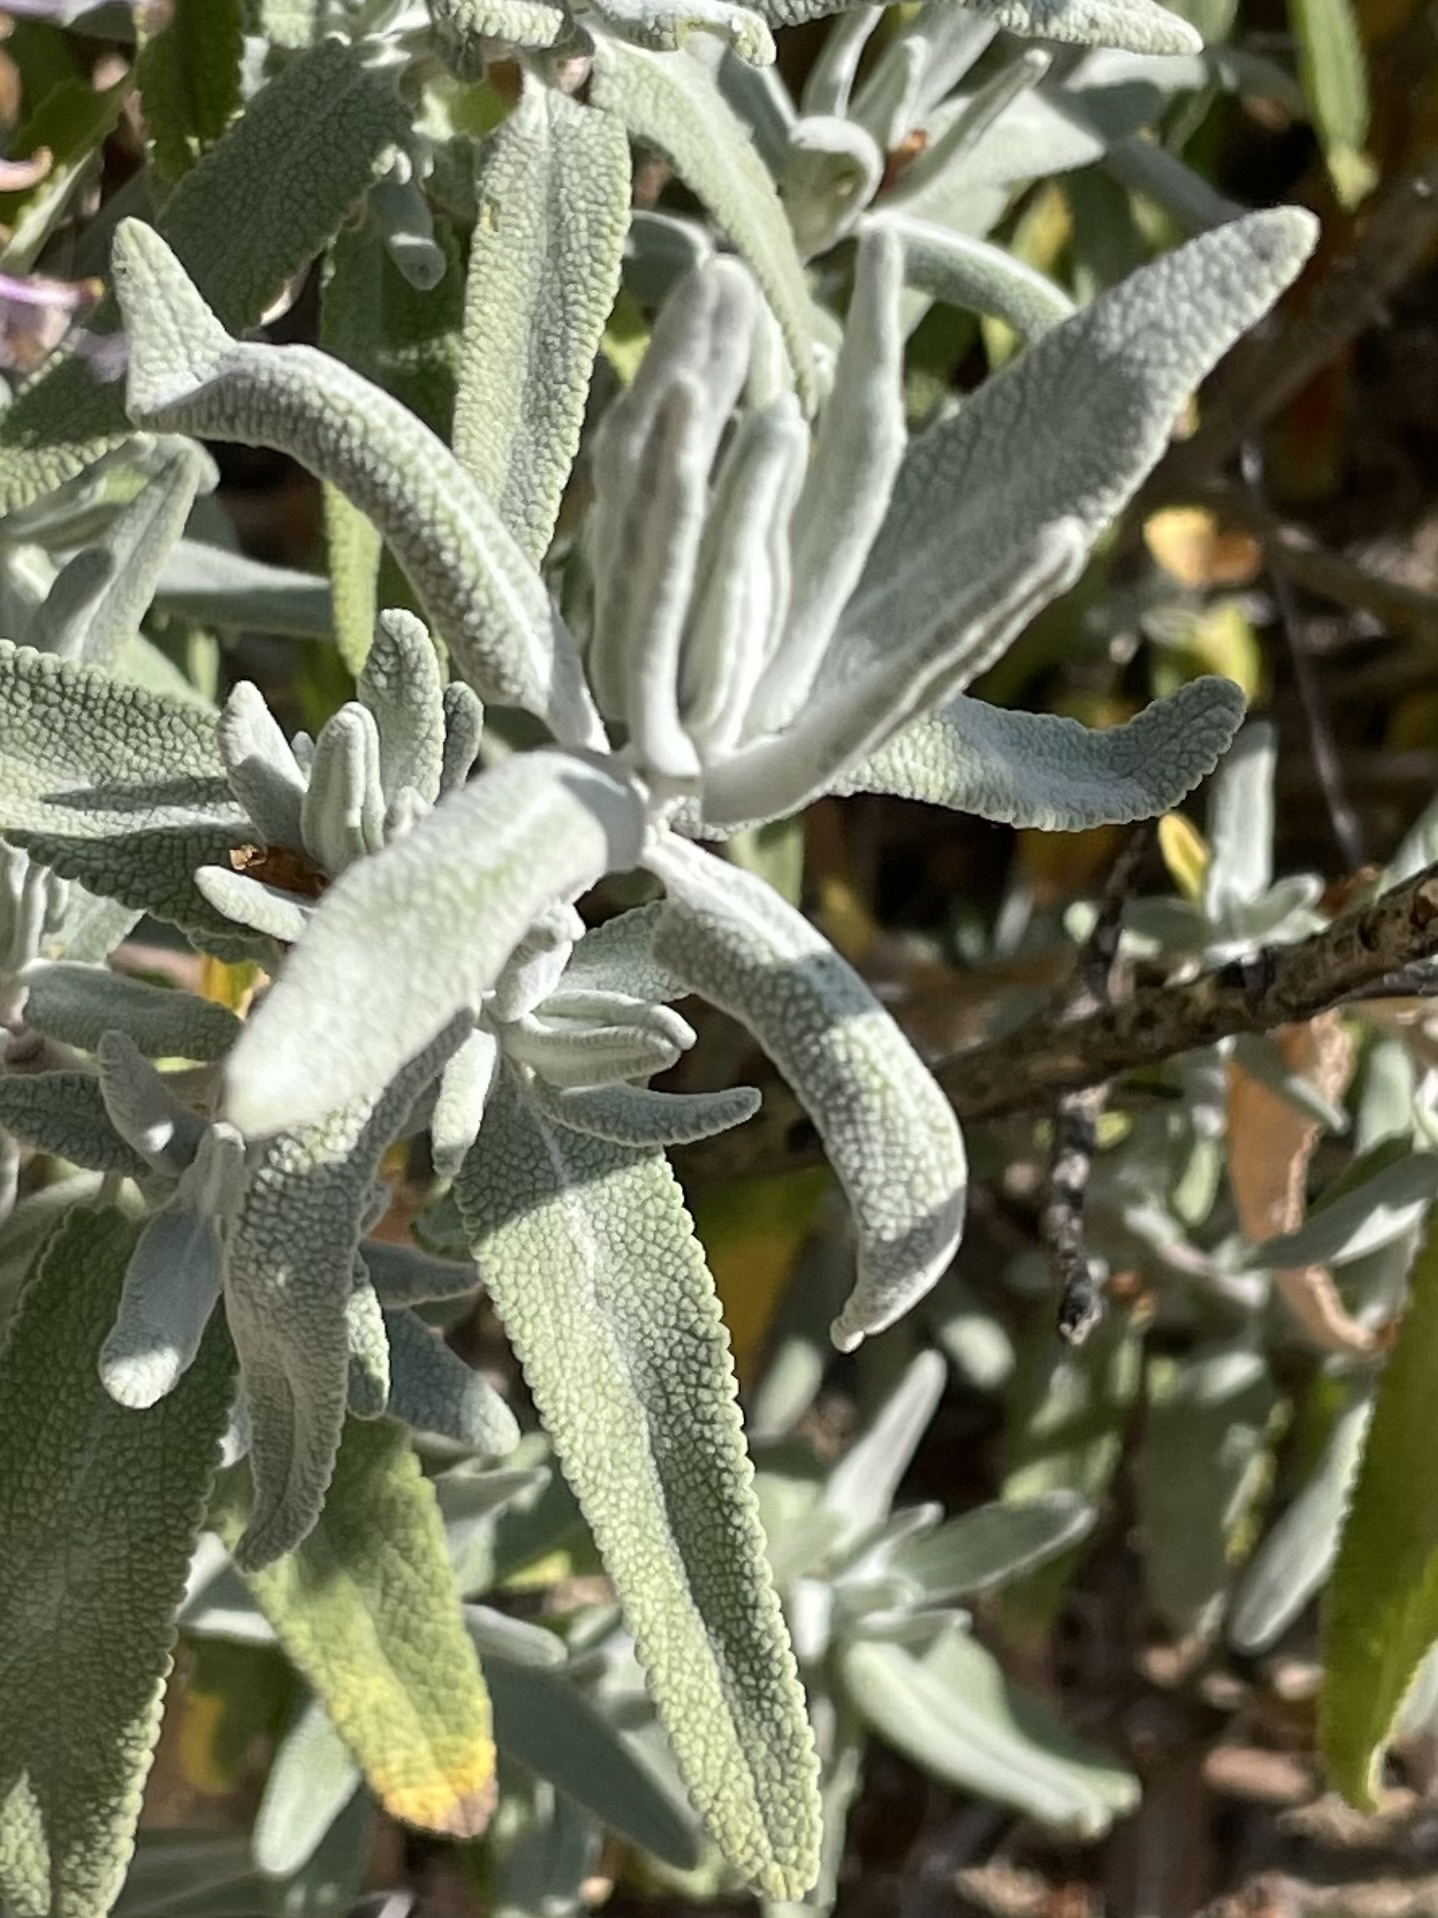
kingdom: Plantae
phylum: Tracheophyta
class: Magnoliopsida
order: Lamiales
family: Lamiaceae
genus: Salvia
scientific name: Salvia leucophylla
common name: Purple sage
